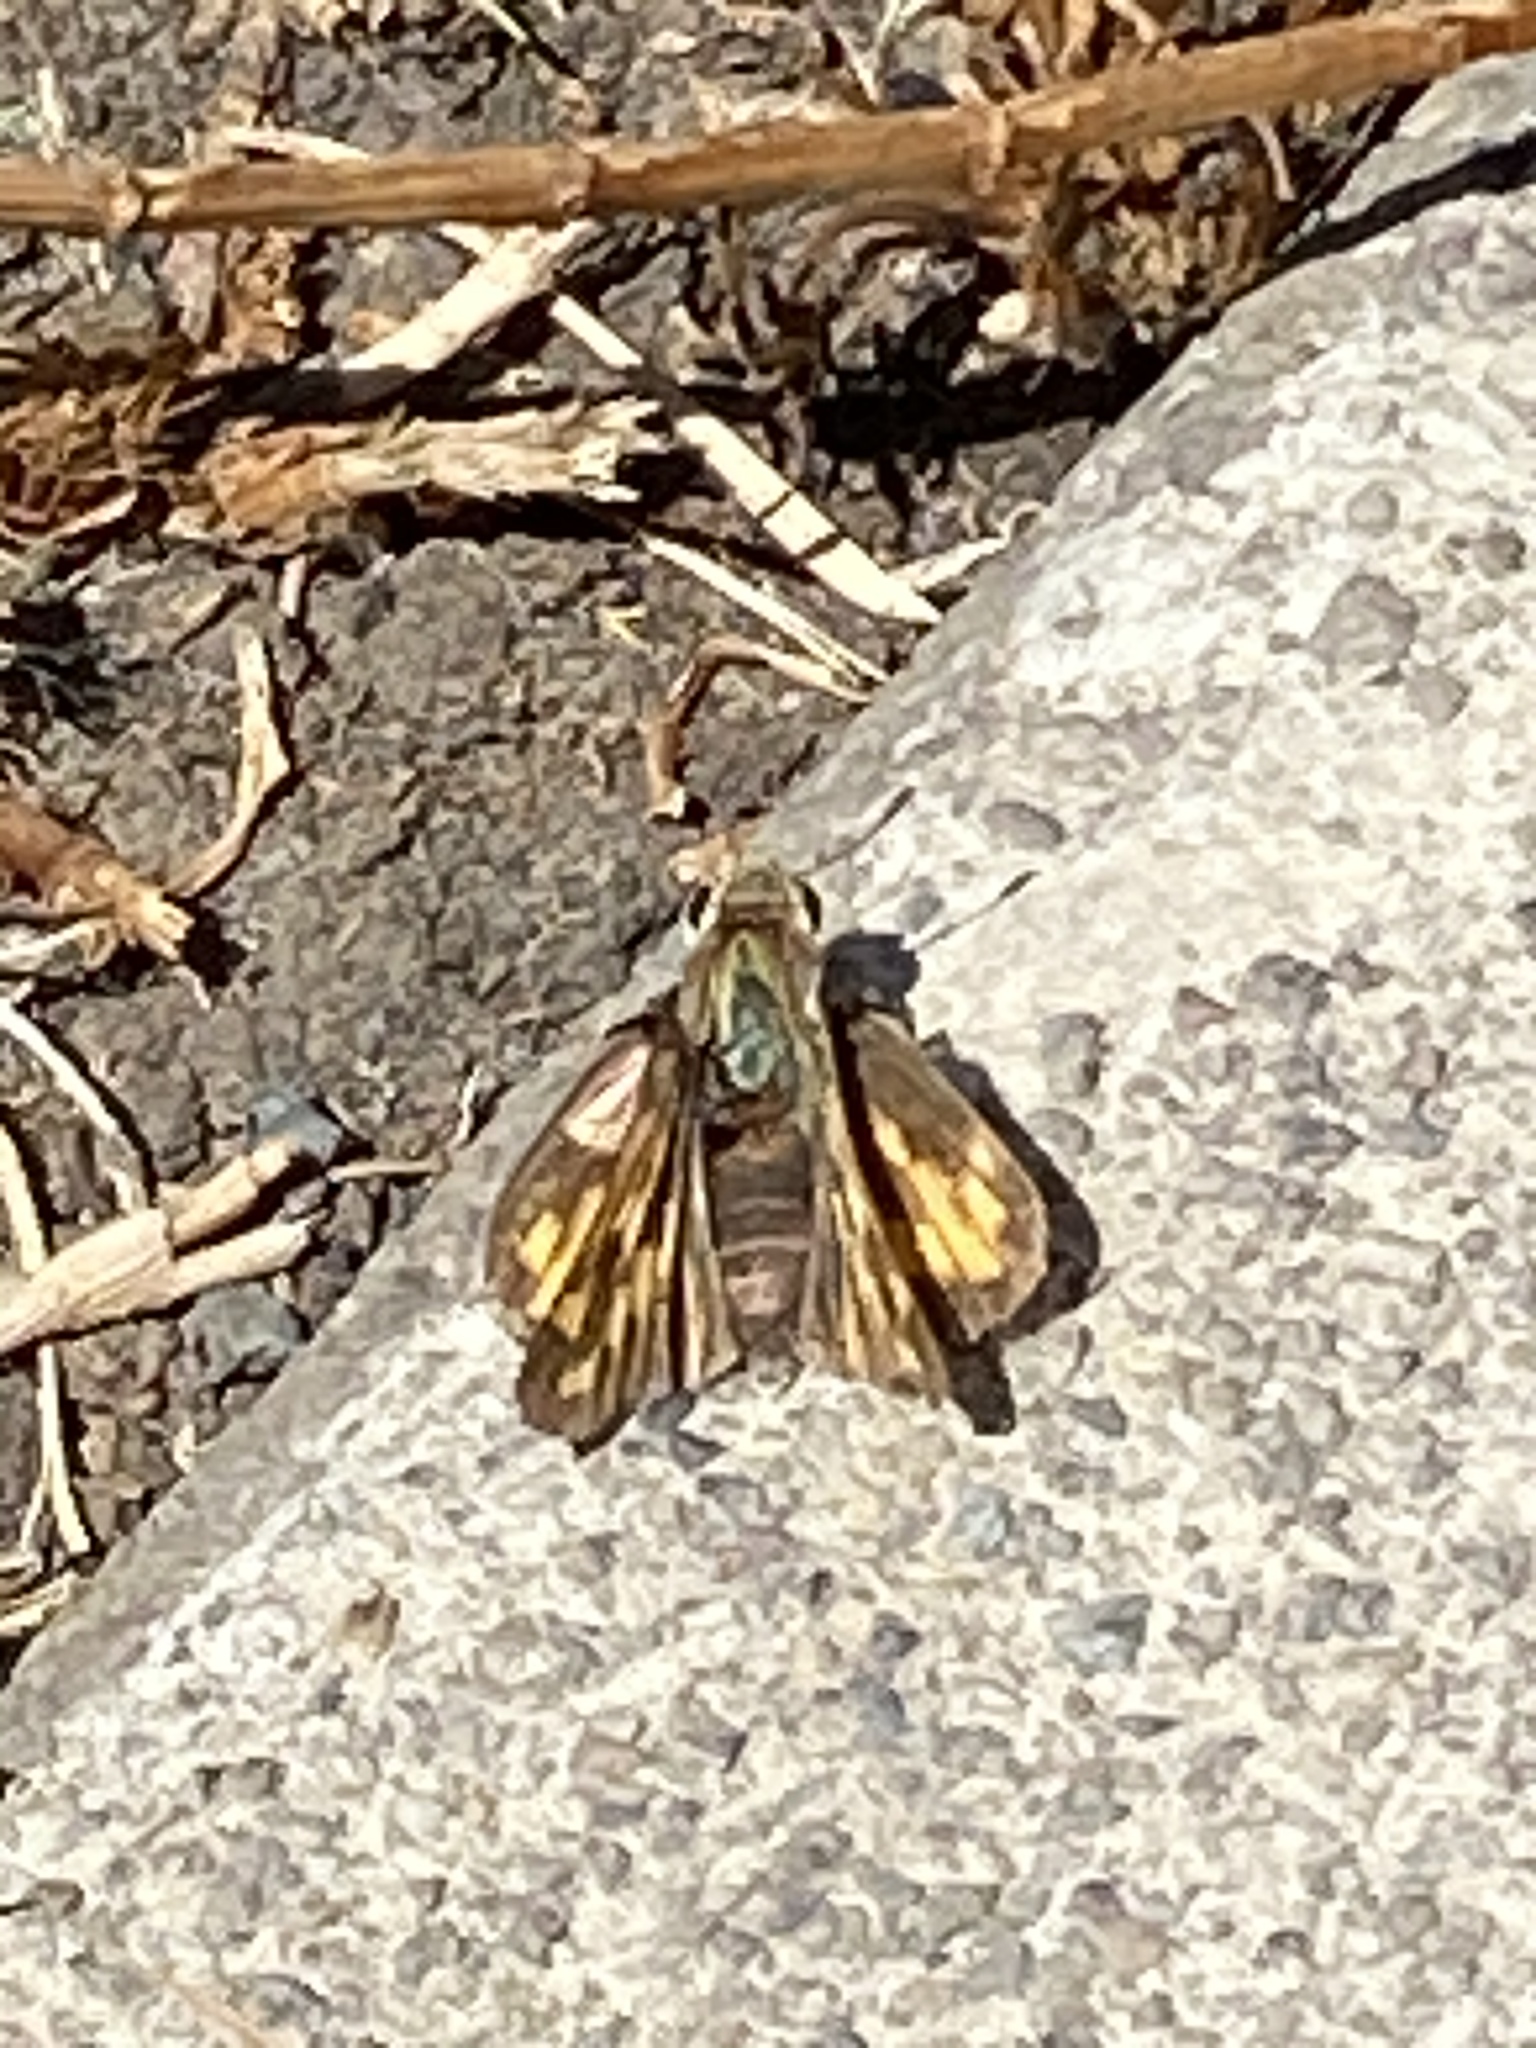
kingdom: Animalia
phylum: Arthropoda
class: Insecta
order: Lepidoptera
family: Hesperiidae
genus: Hylephila
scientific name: Hylephila phyleus
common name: Fiery skipper
